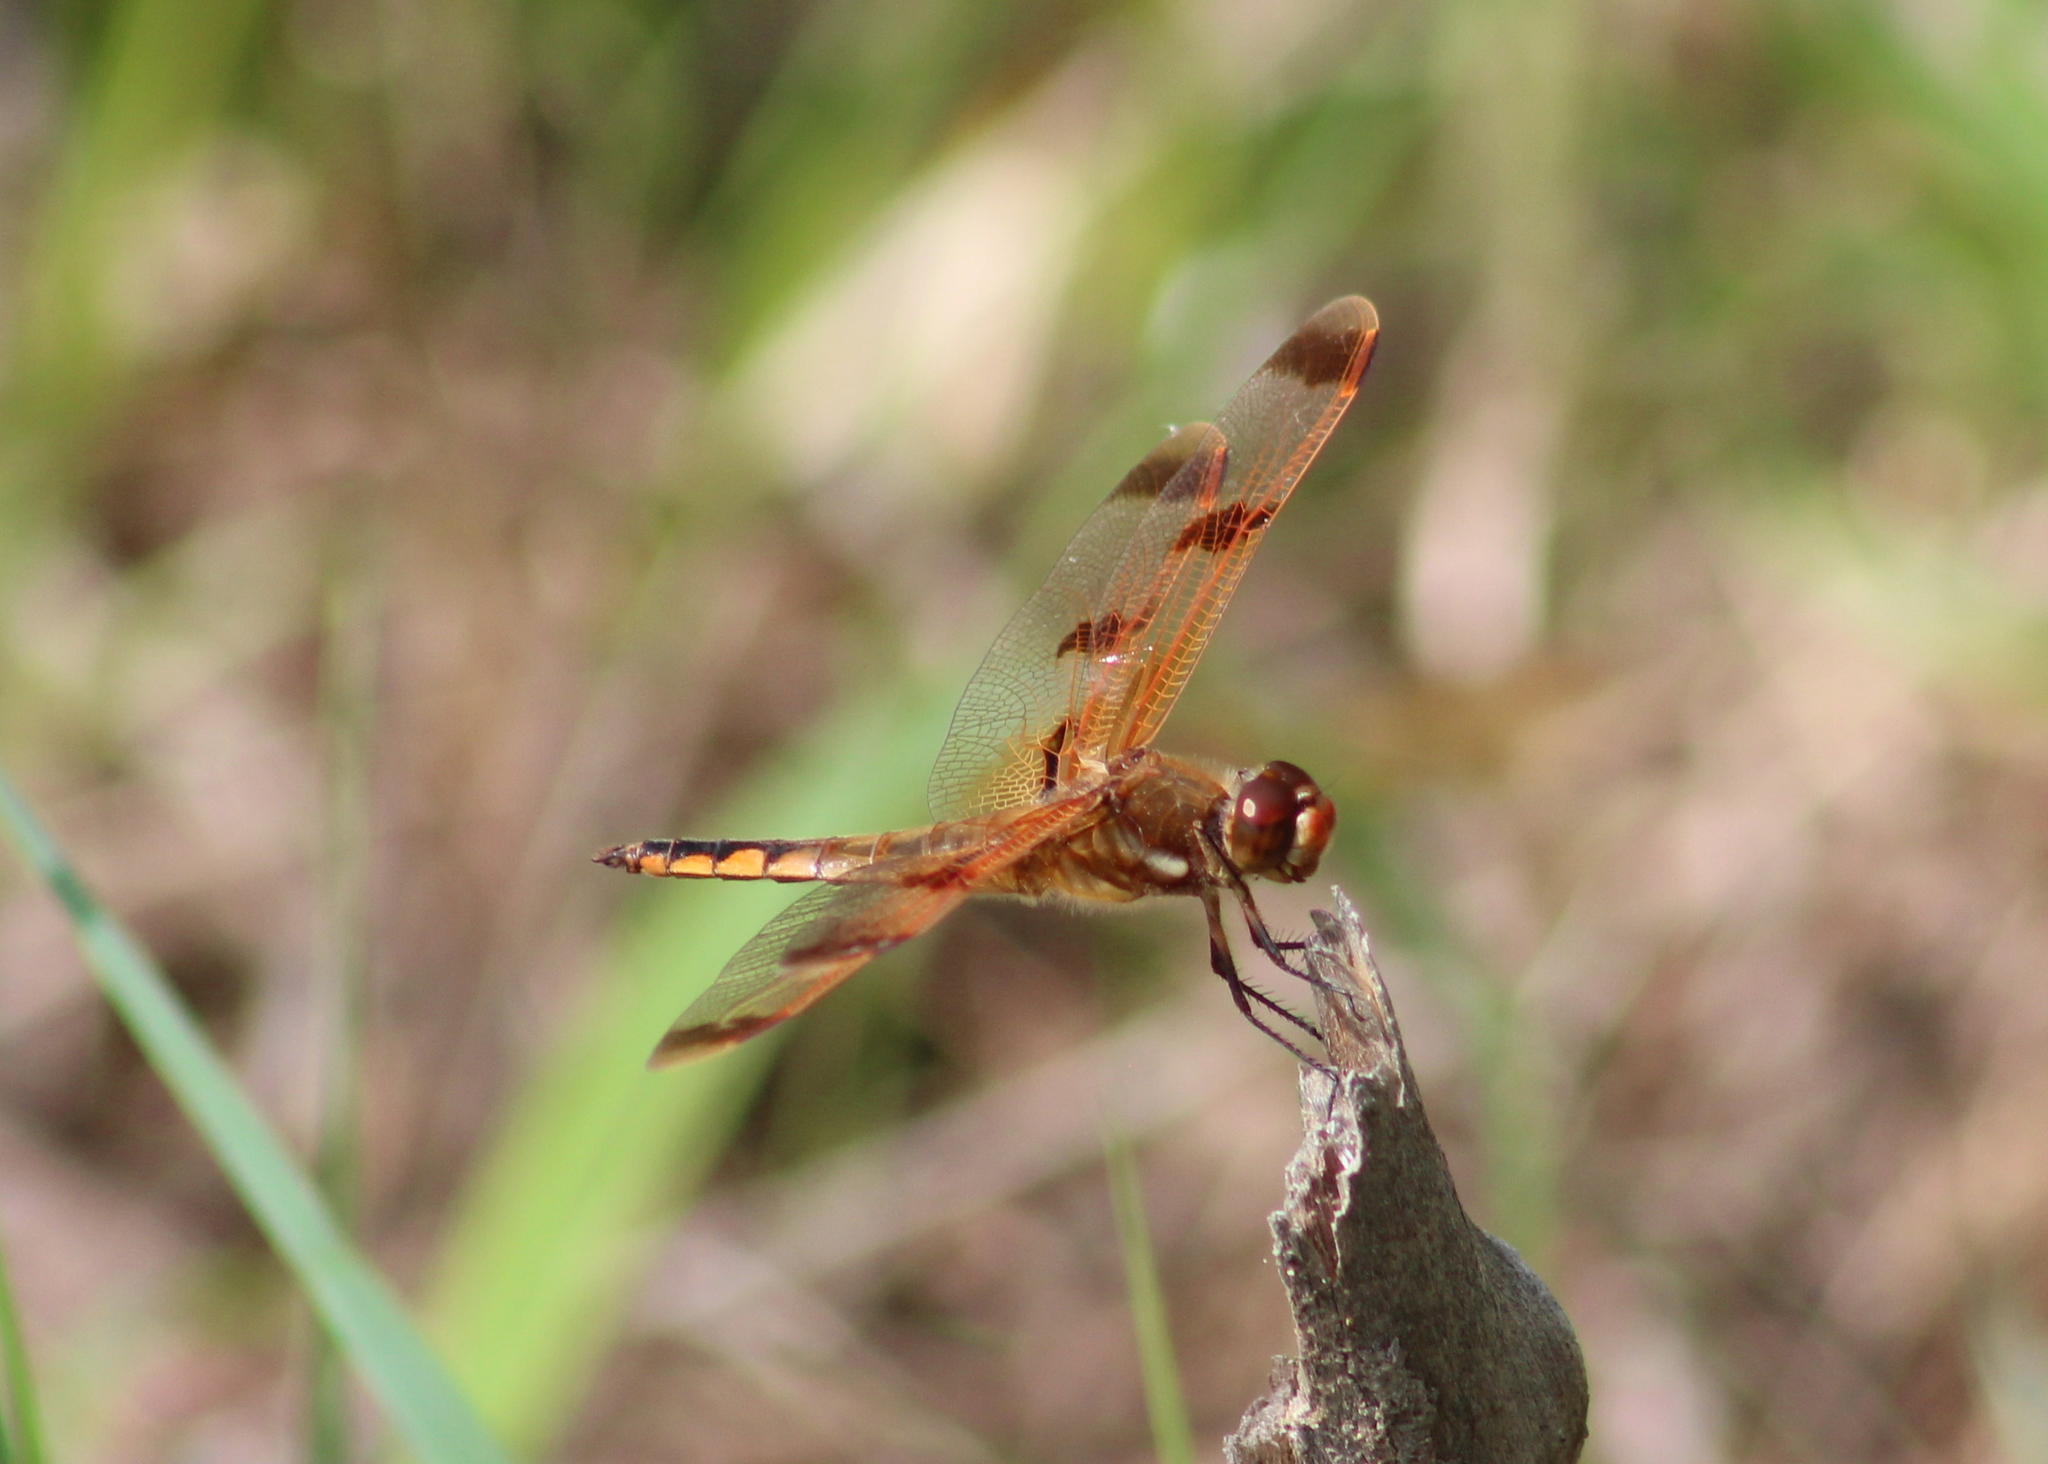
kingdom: Animalia
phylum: Arthropoda
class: Insecta
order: Odonata
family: Libellulidae
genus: Libellula
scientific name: Libellula semifasciata
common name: Painted skimmer
